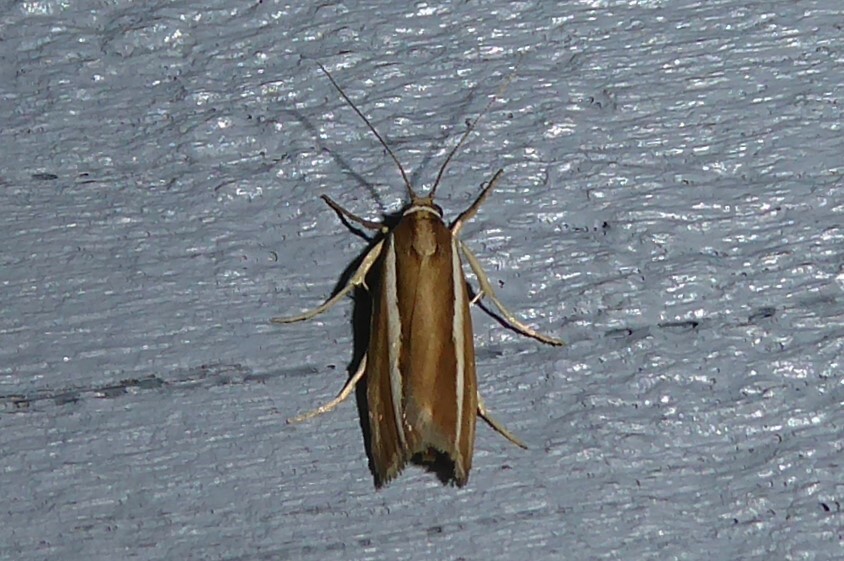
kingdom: Animalia
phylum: Arthropoda
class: Insecta
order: Lepidoptera
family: Crambidae
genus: Orocrambus
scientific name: Orocrambus aethonellus
